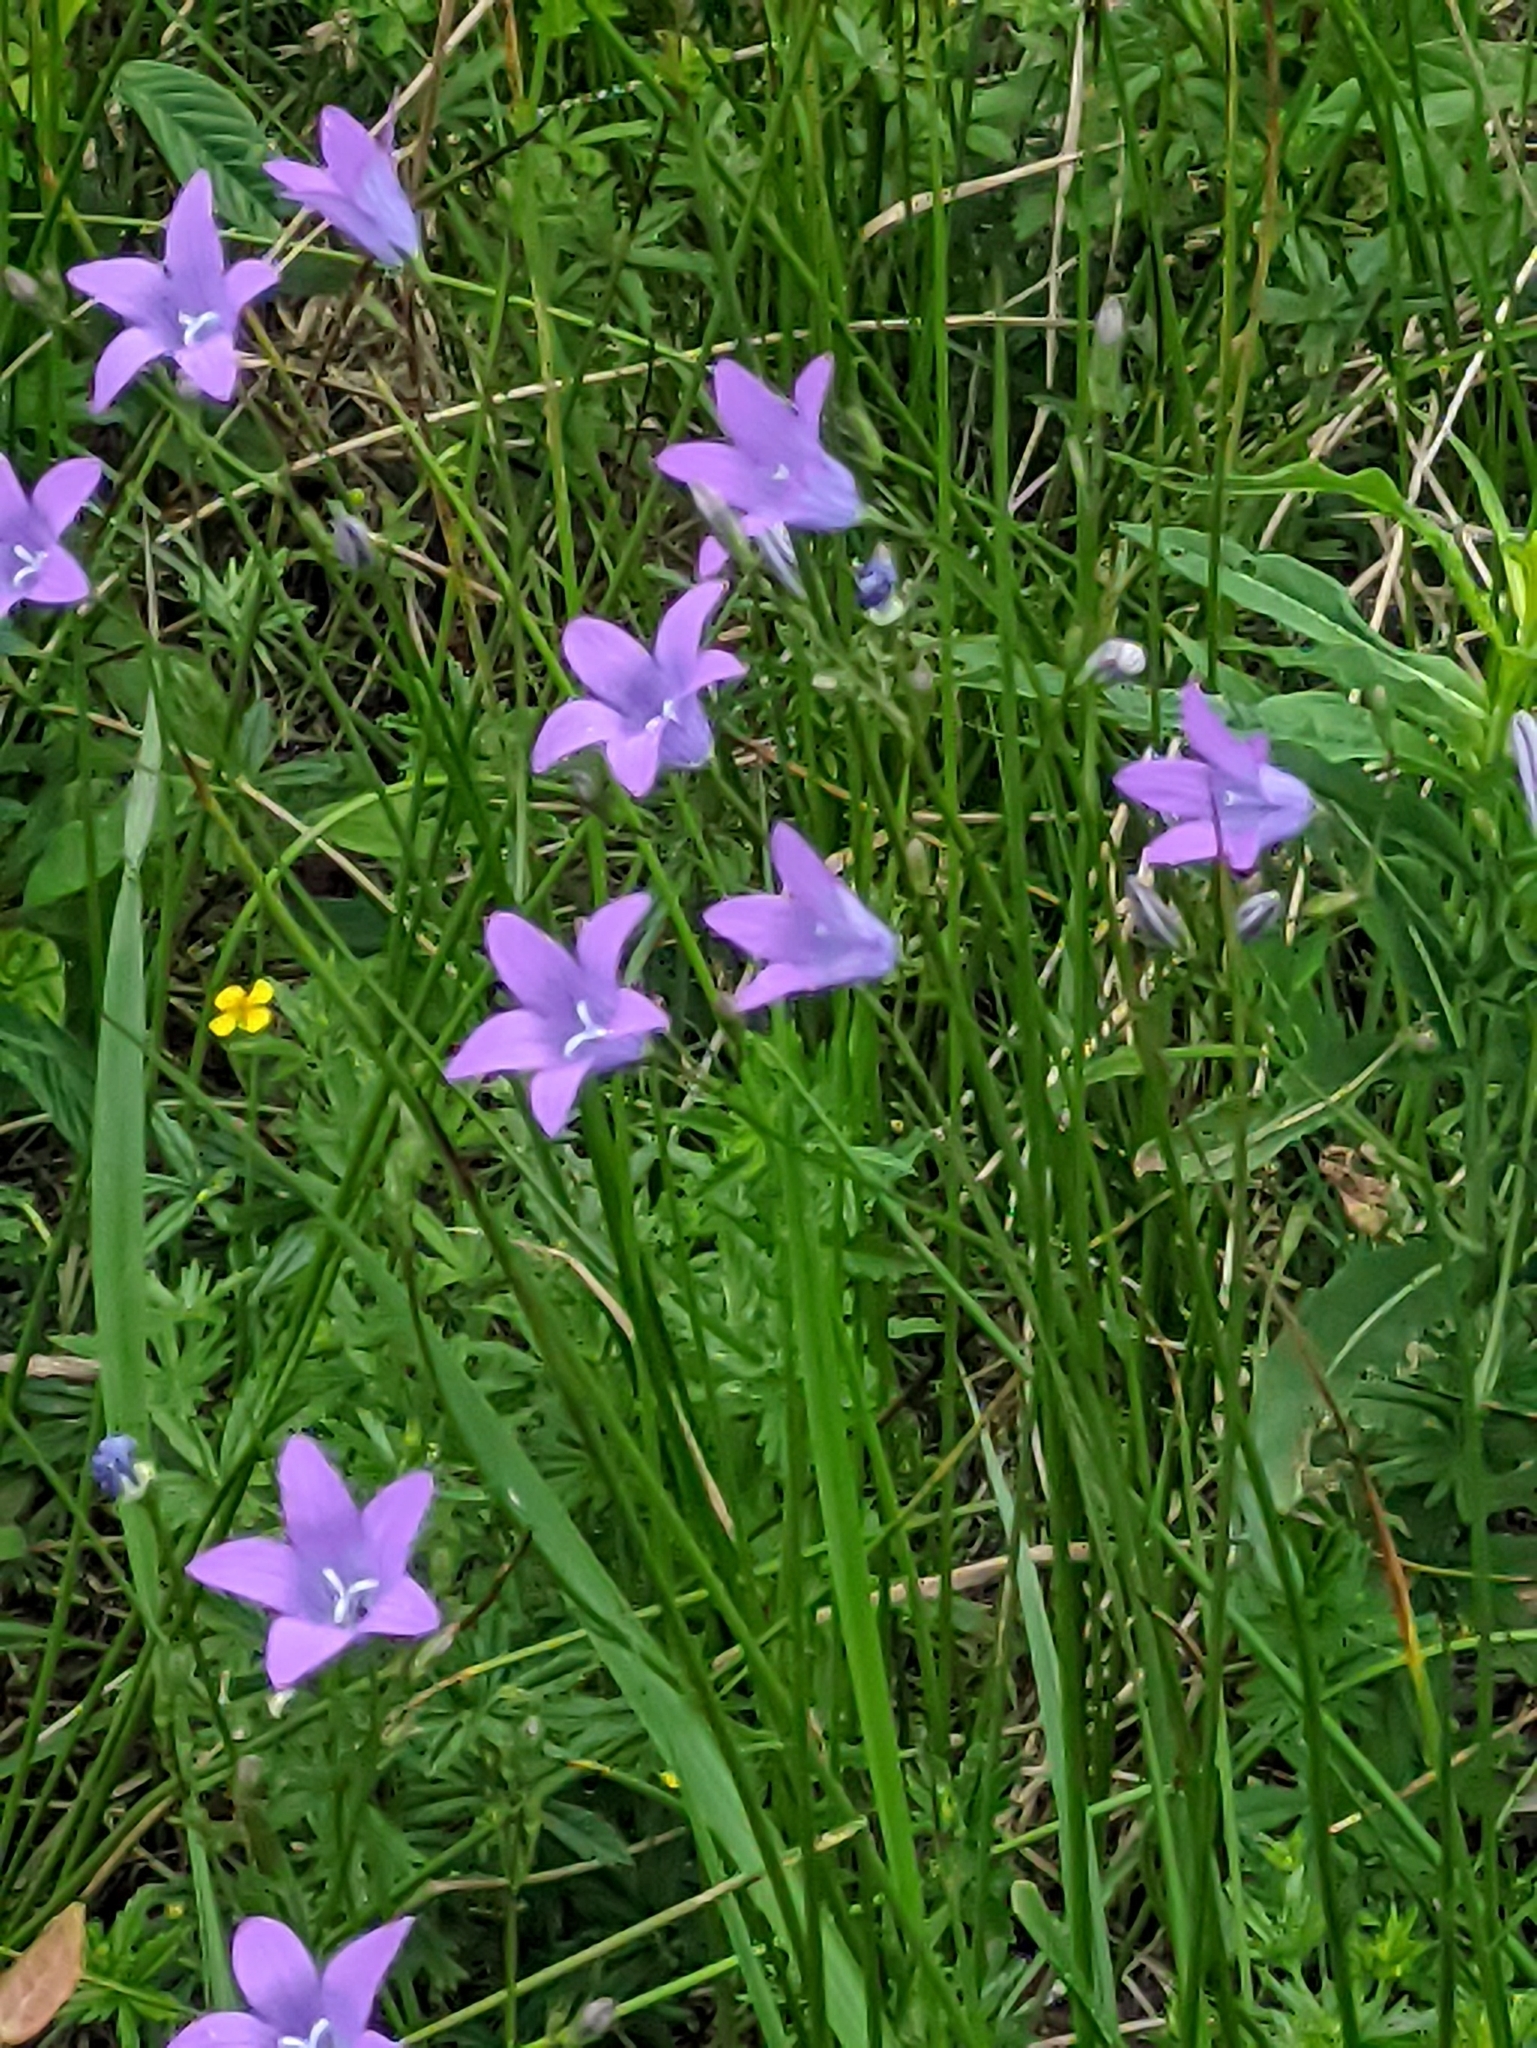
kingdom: Plantae
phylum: Tracheophyta
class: Magnoliopsida
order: Asterales
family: Campanulaceae
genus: Campanula
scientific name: Campanula patula
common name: Spreading bellflower
